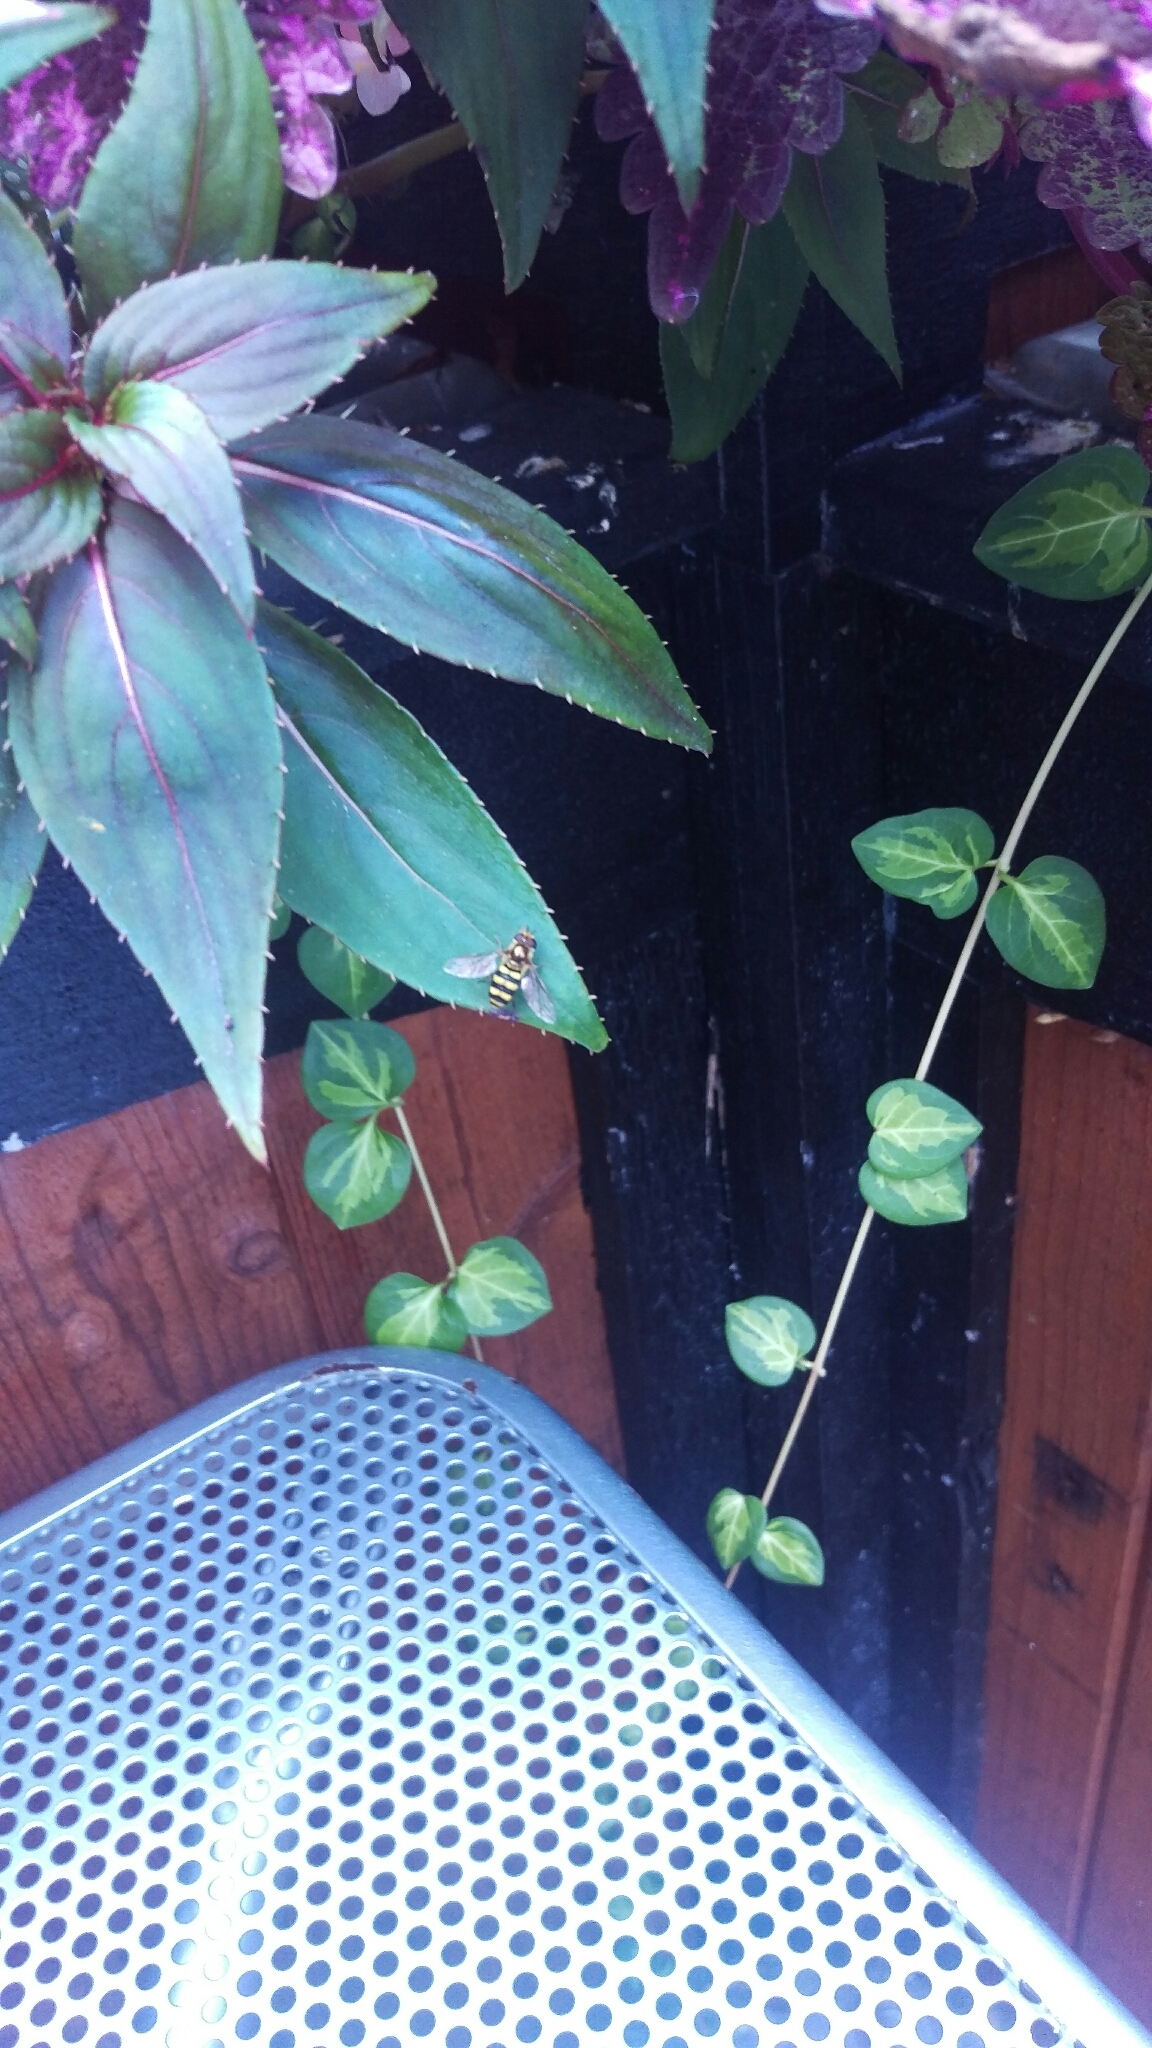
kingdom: Animalia
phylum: Arthropoda
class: Insecta
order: Diptera
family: Syrphidae
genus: Eupeodes
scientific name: Eupeodes
